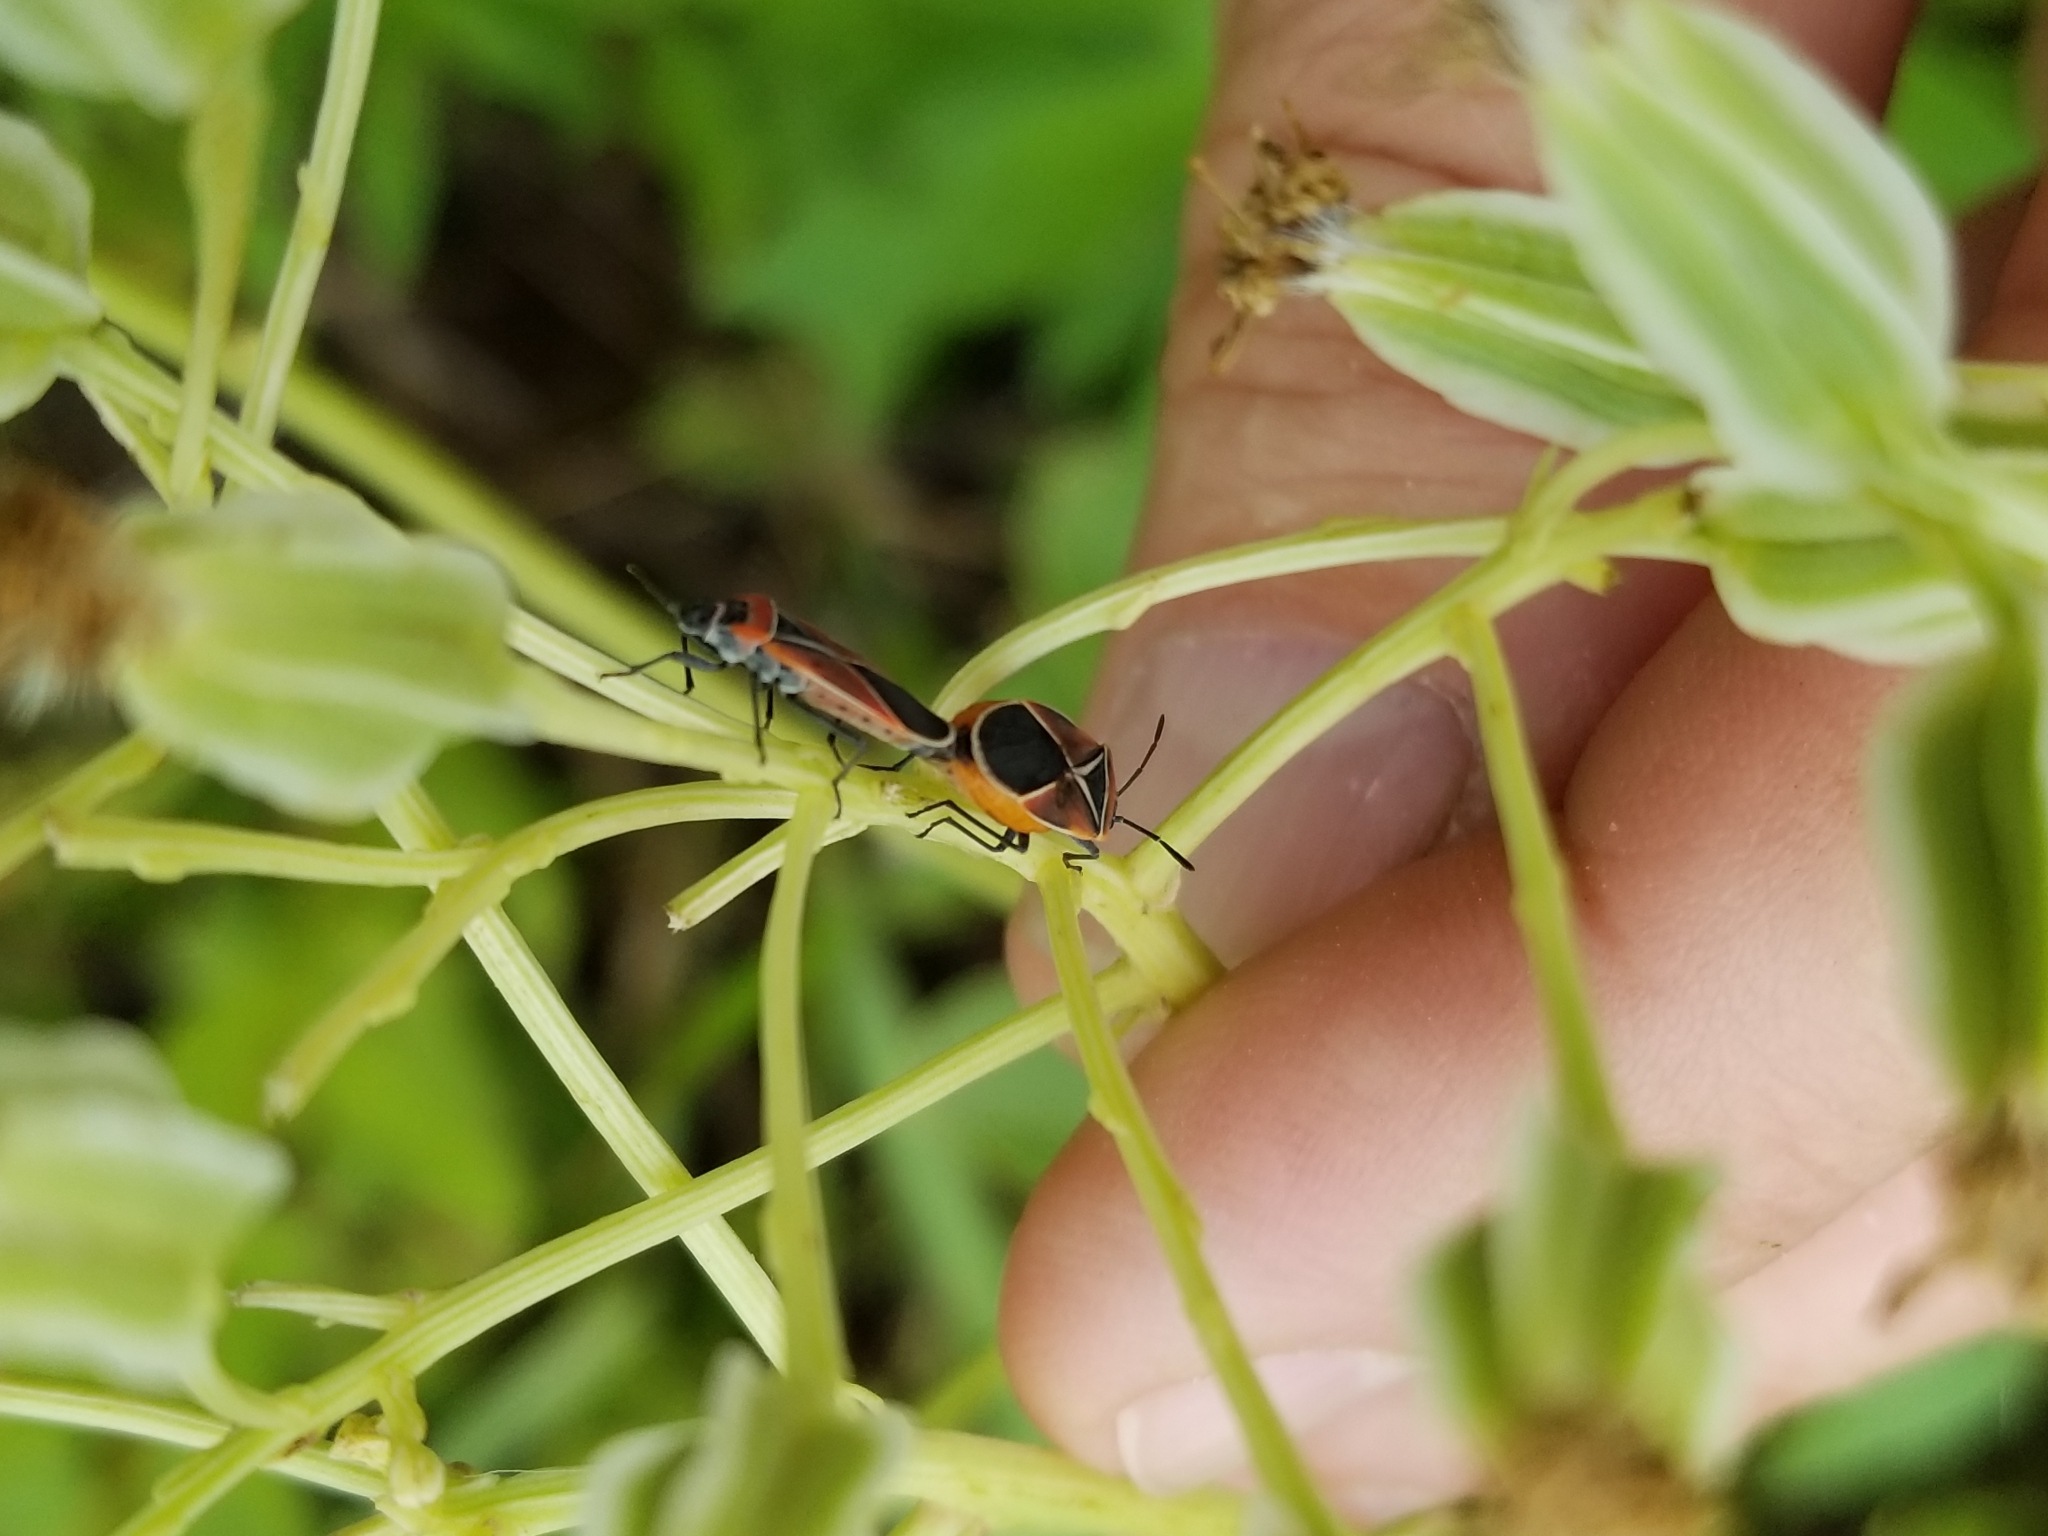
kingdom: Animalia
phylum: Arthropoda
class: Insecta
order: Hemiptera
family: Lygaeidae
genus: Neacoryphus
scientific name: Neacoryphus bicrucis
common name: Lygaeid bug
